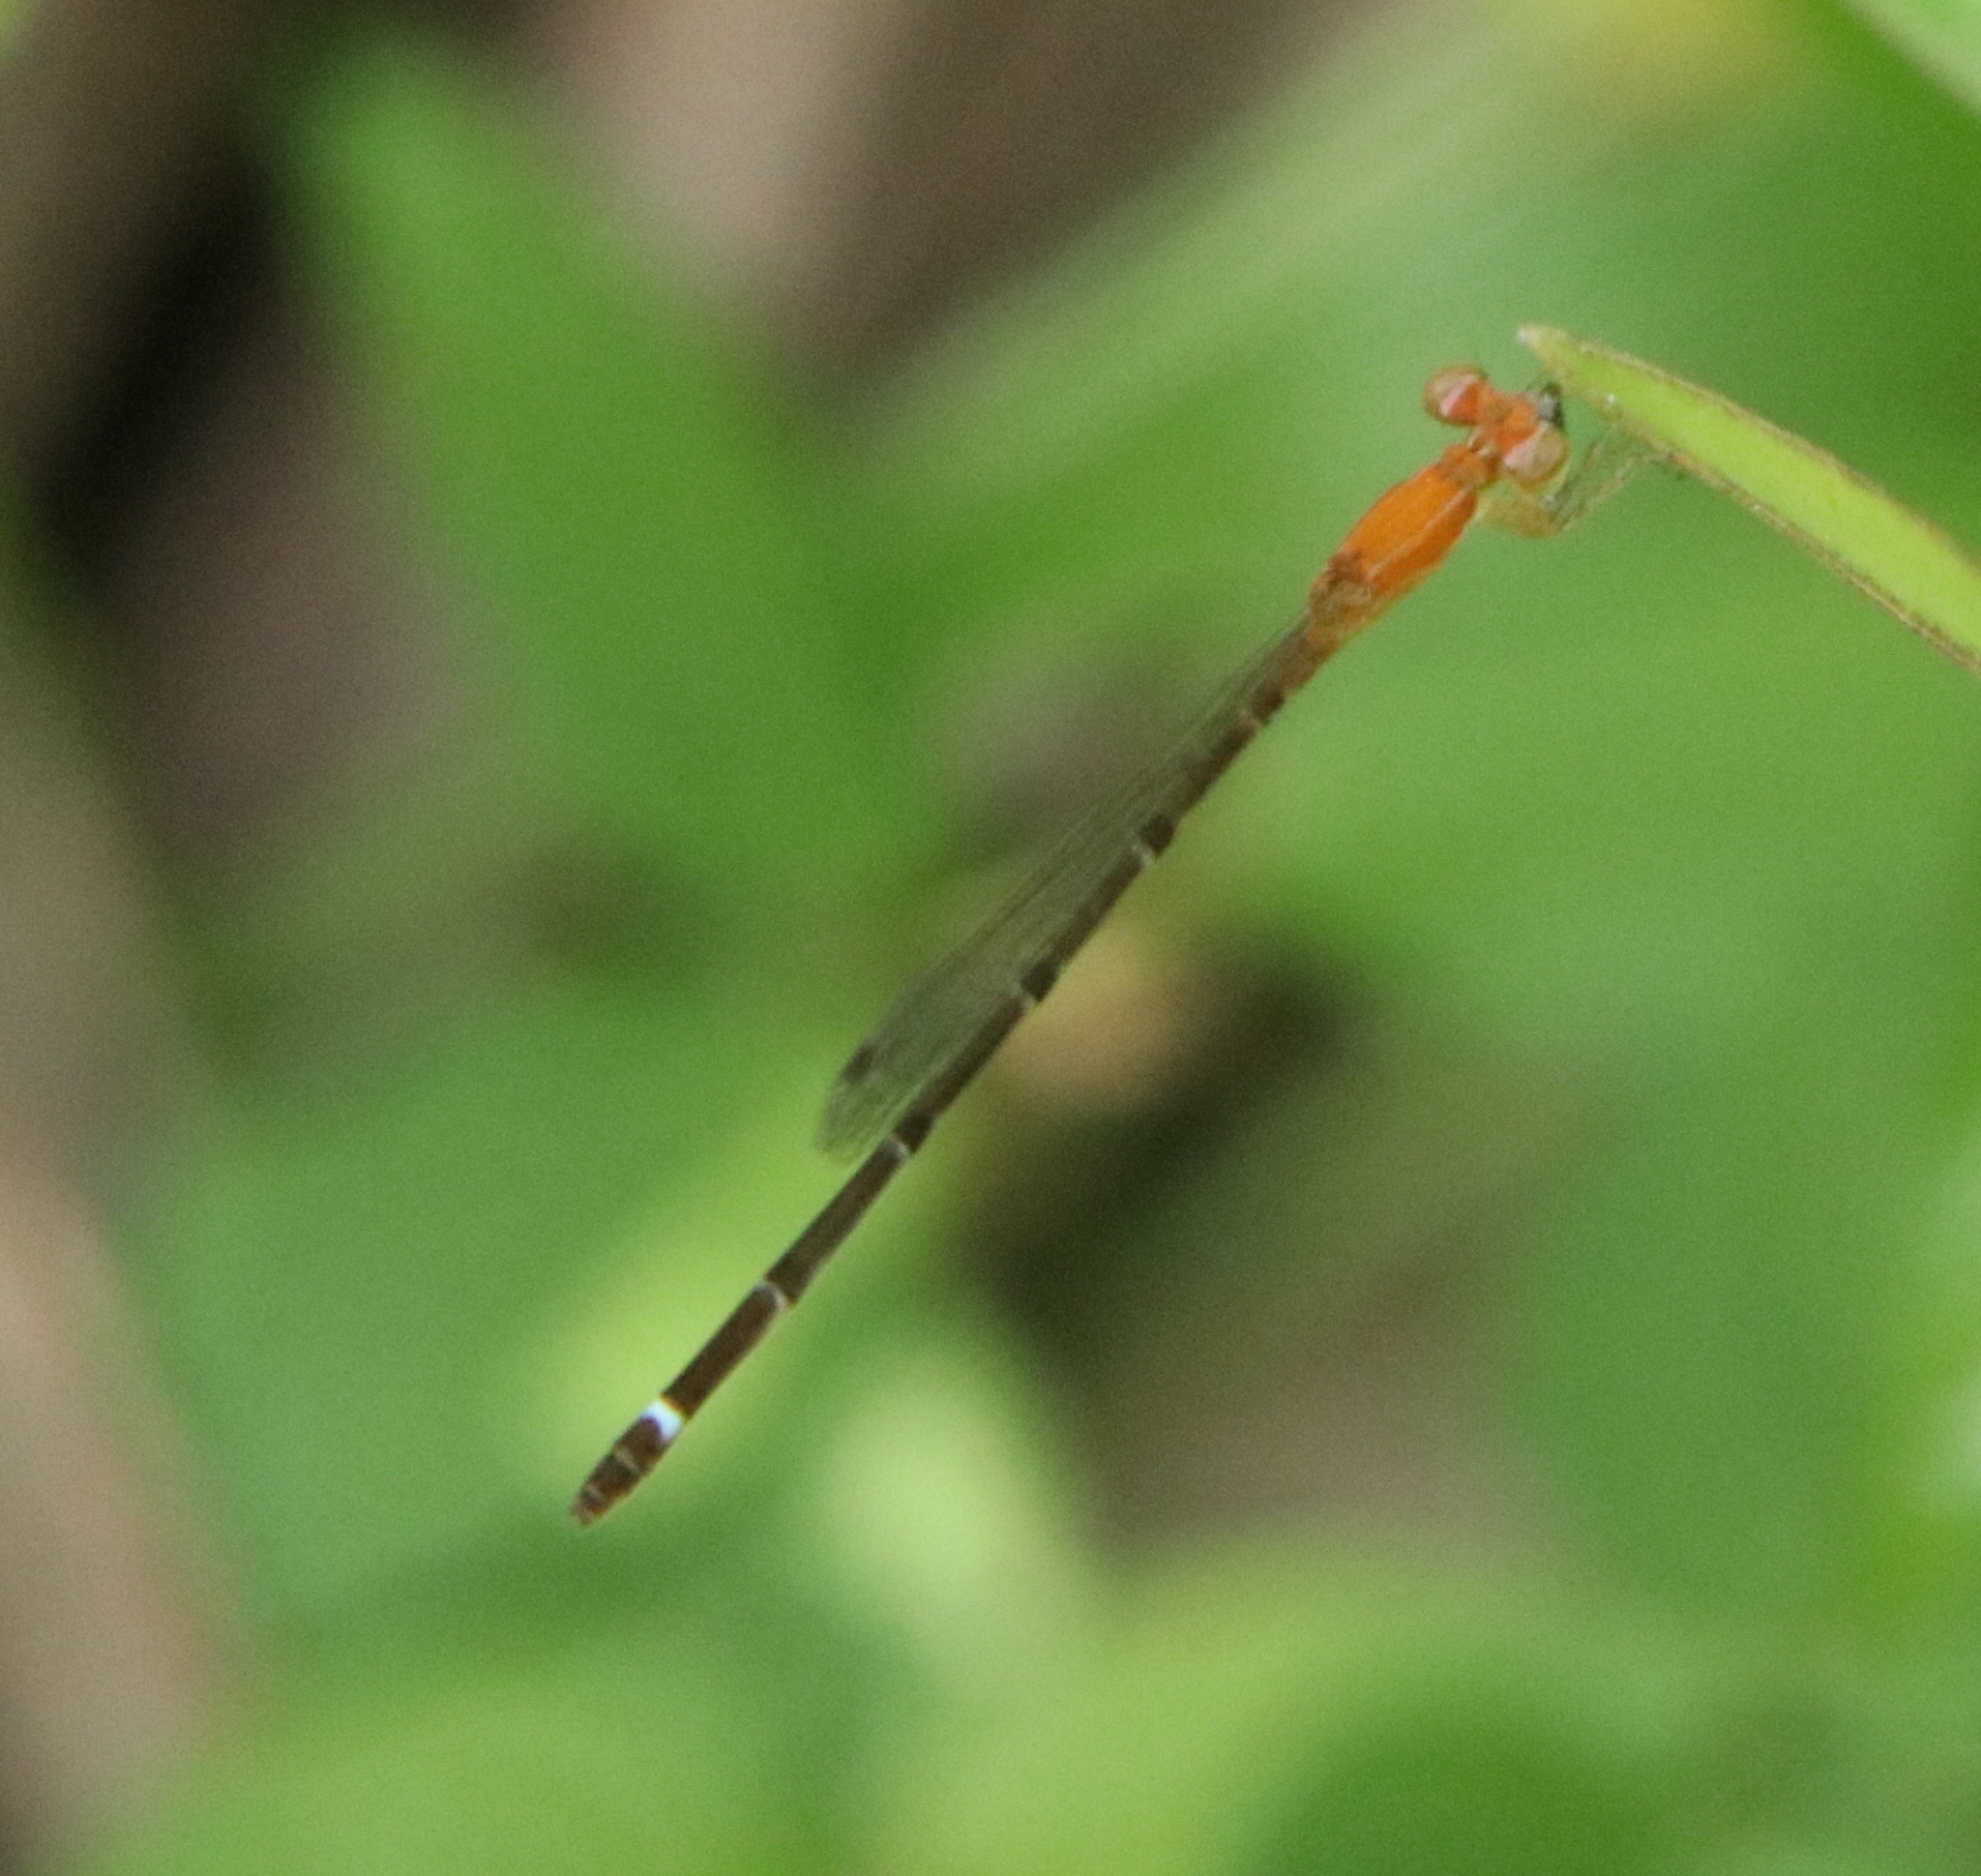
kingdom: Animalia
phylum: Arthropoda
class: Insecta
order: Odonata
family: Coenagrionidae
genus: Mortonagrion
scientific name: Mortonagrion varralli
